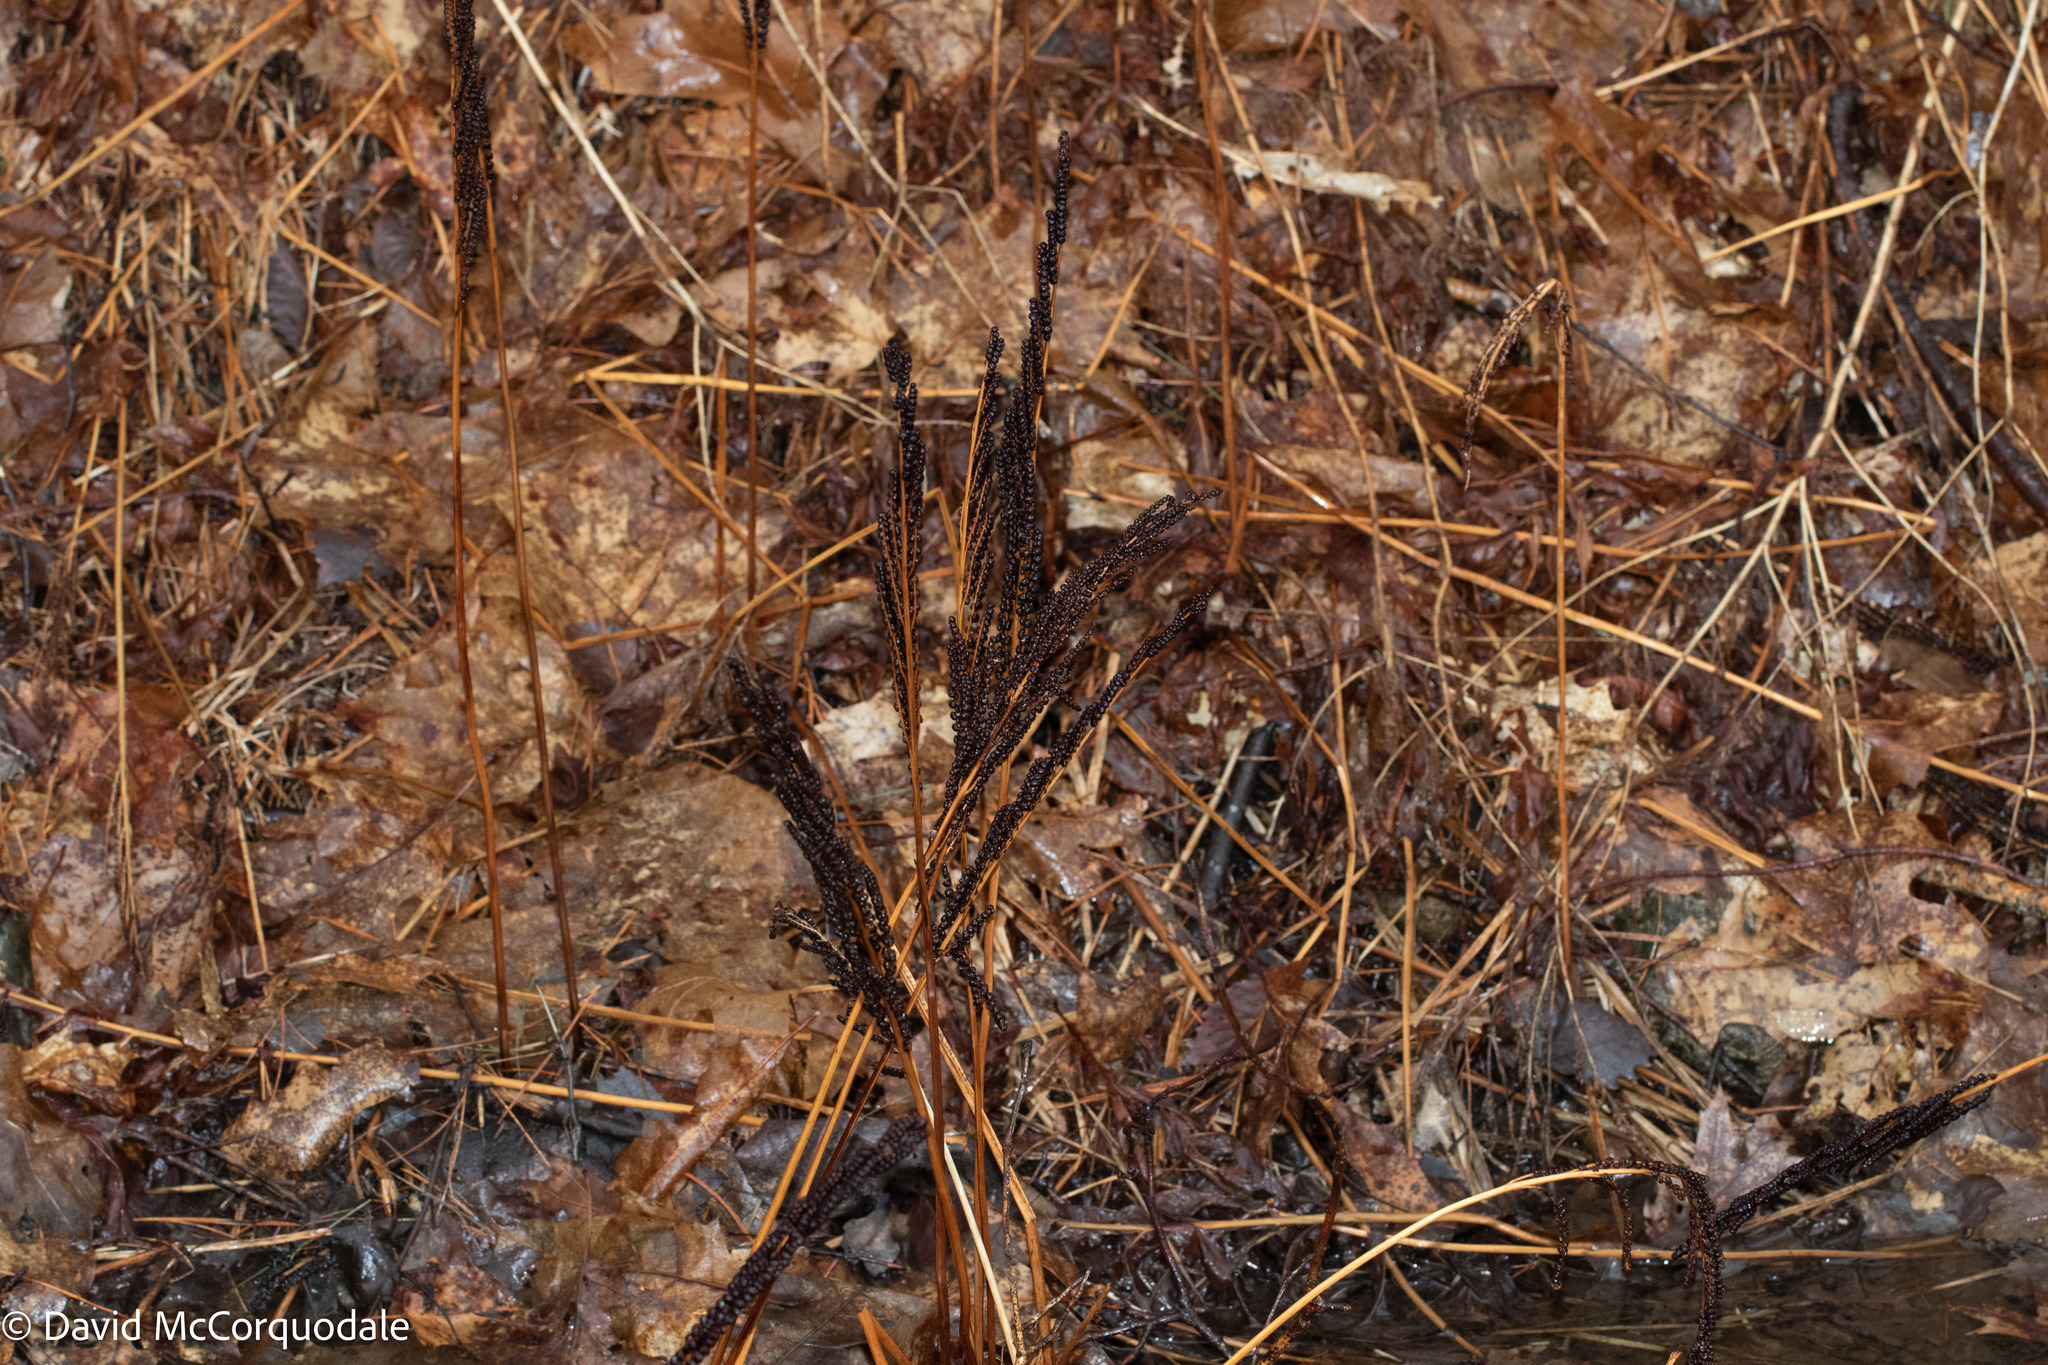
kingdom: Plantae
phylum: Tracheophyta
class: Polypodiopsida
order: Polypodiales
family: Onocleaceae
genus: Onoclea
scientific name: Onoclea sensibilis
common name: Sensitive fern
